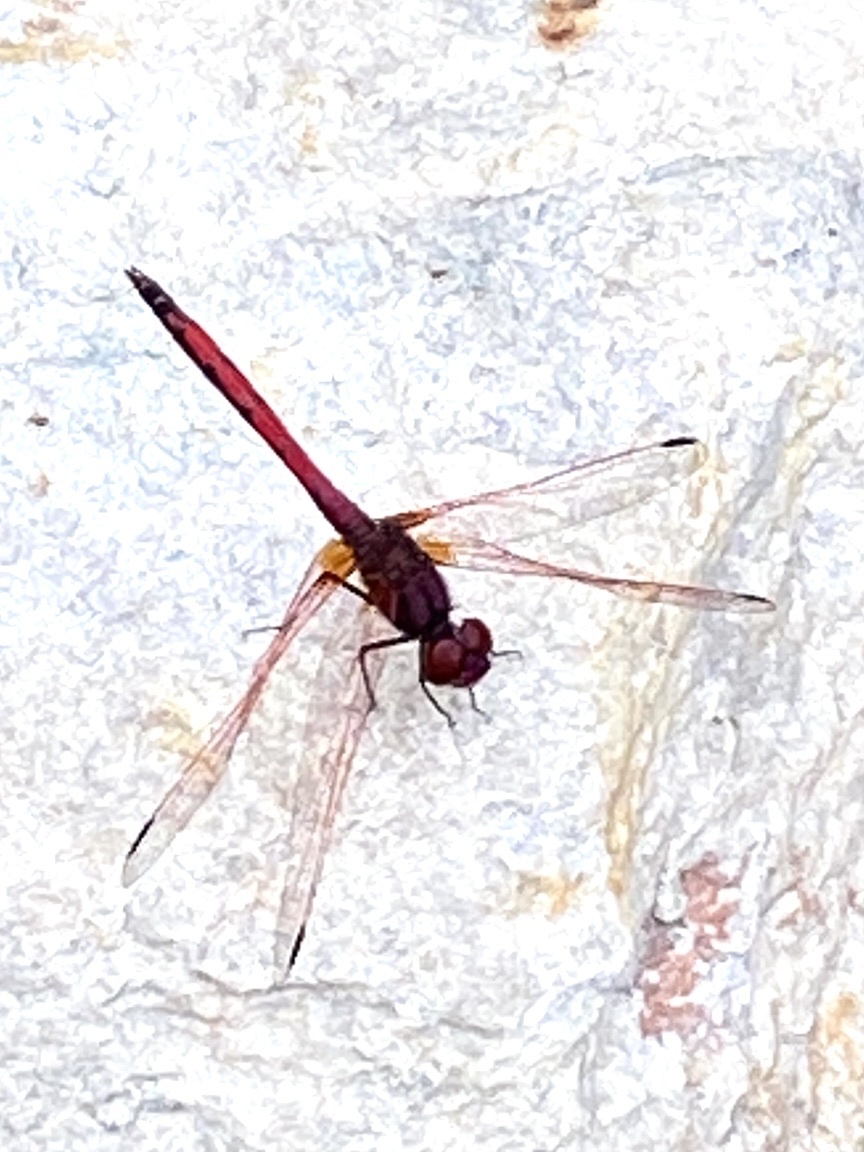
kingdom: Animalia
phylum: Arthropoda
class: Insecta
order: Odonata
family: Libellulidae
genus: Trithemis
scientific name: Trithemis arteriosa
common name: Red-veined dropwing
